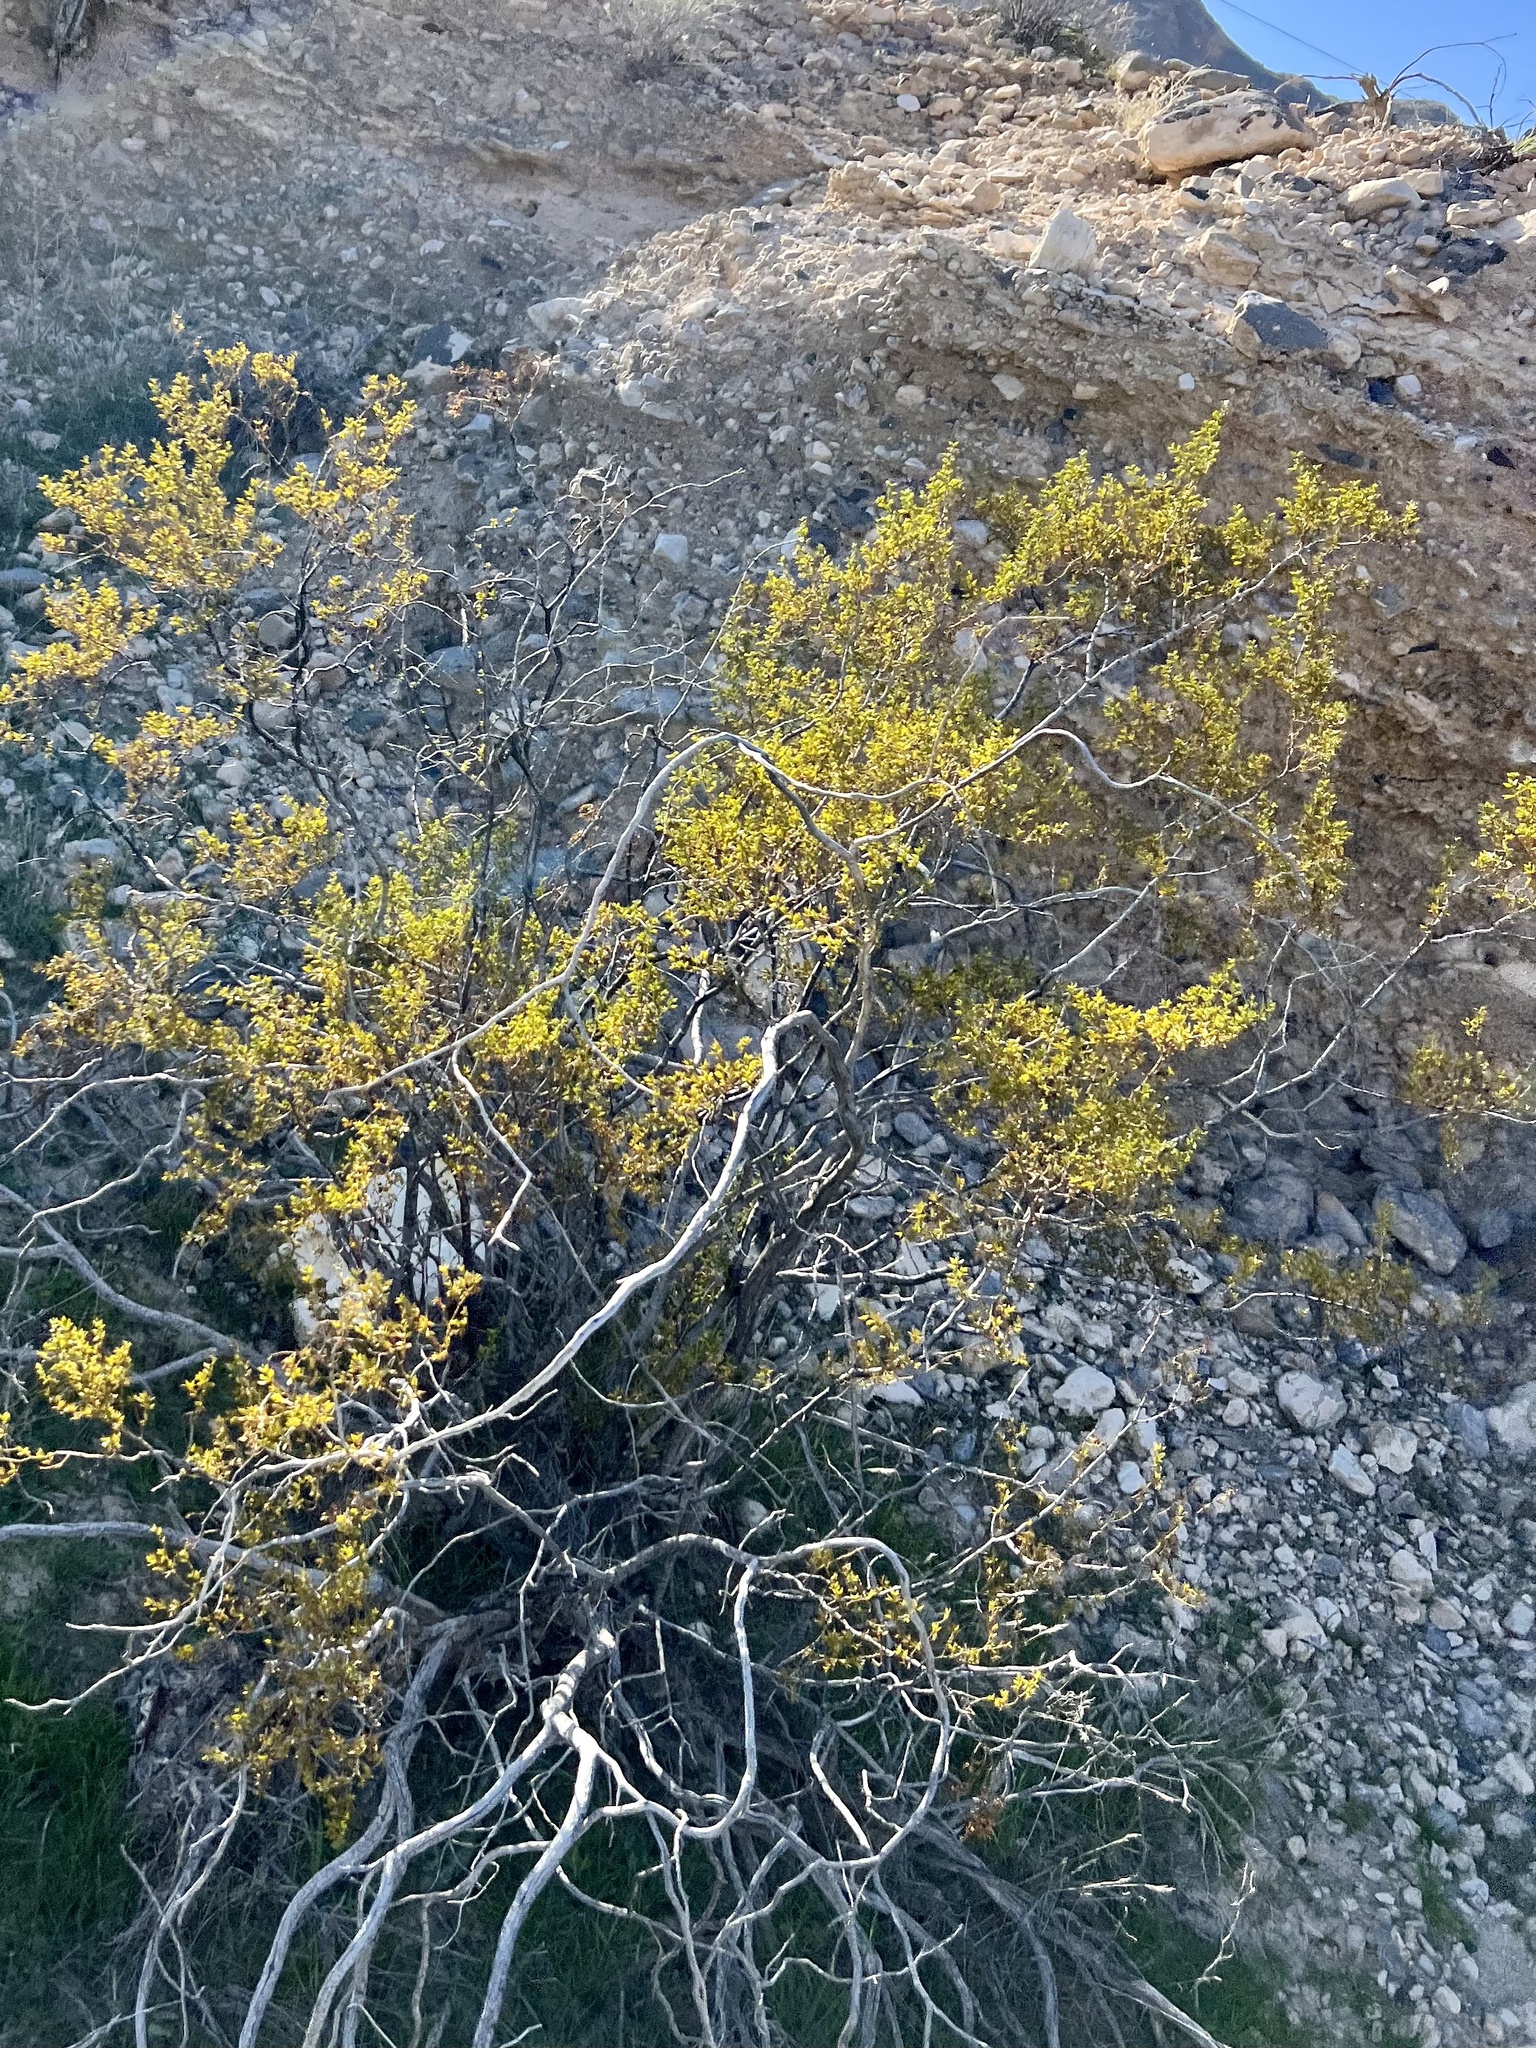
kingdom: Plantae
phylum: Tracheophyta
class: Magnoliopsida
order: Zygophyllales
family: Zygophyllaceae
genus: Larrea
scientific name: Larrea tridentata
